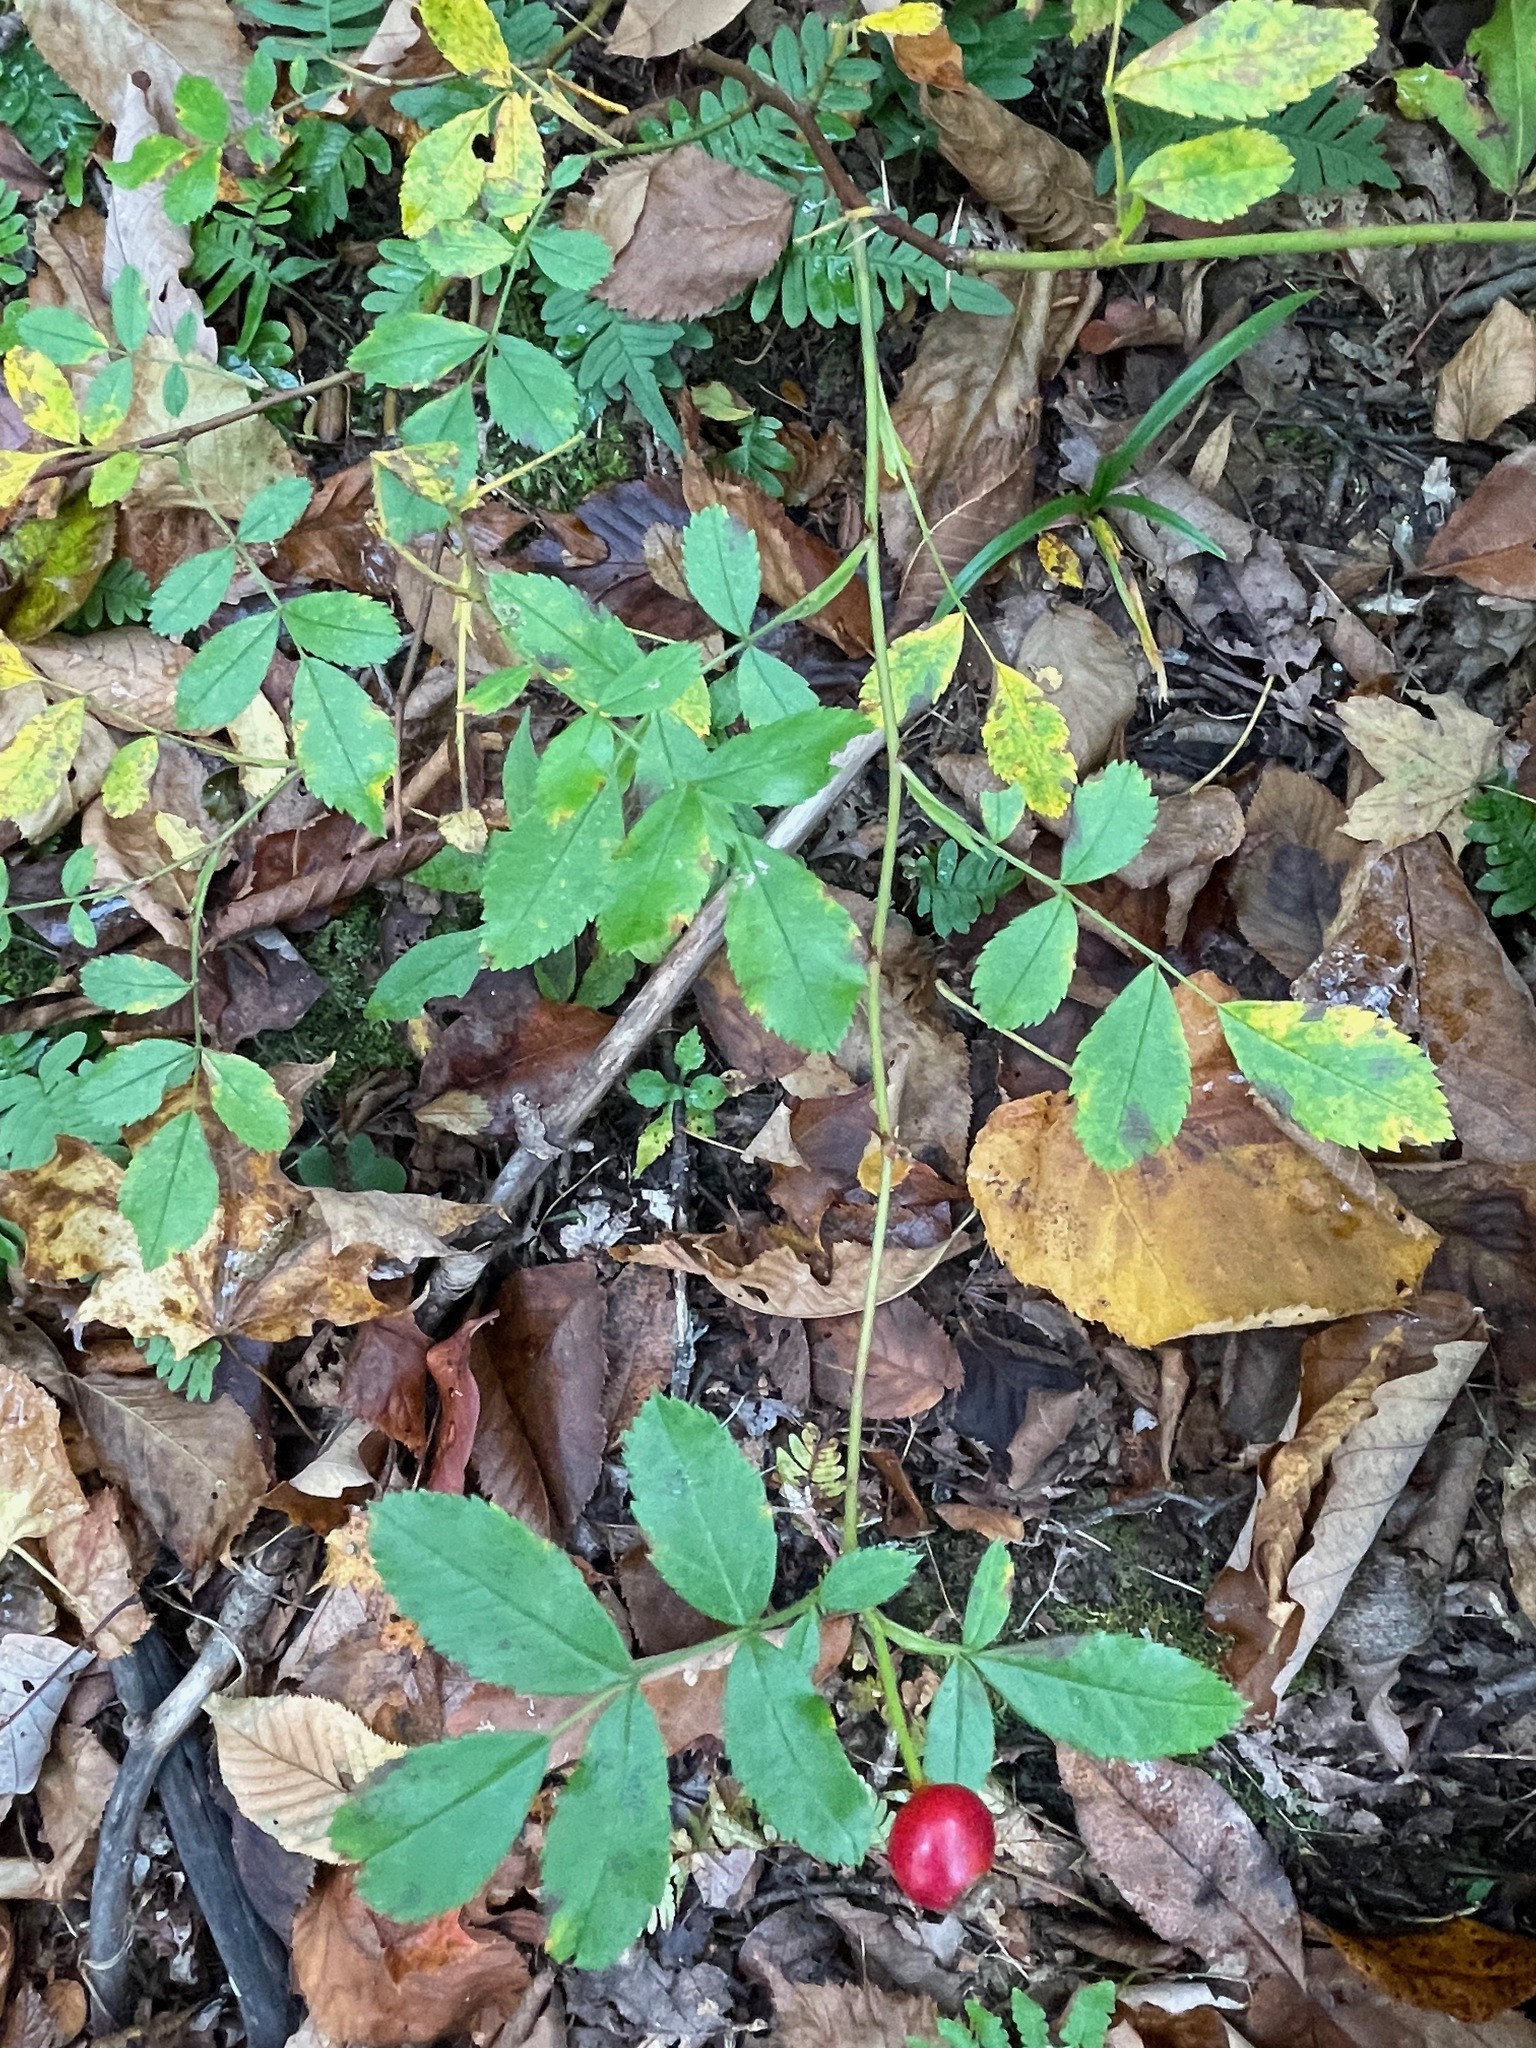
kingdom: Plantae
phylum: Tracheophyta
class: Magnoliopsida
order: Rosales
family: Rosaceae
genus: Rosa
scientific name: Rosa carolina
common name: Pasture rose
